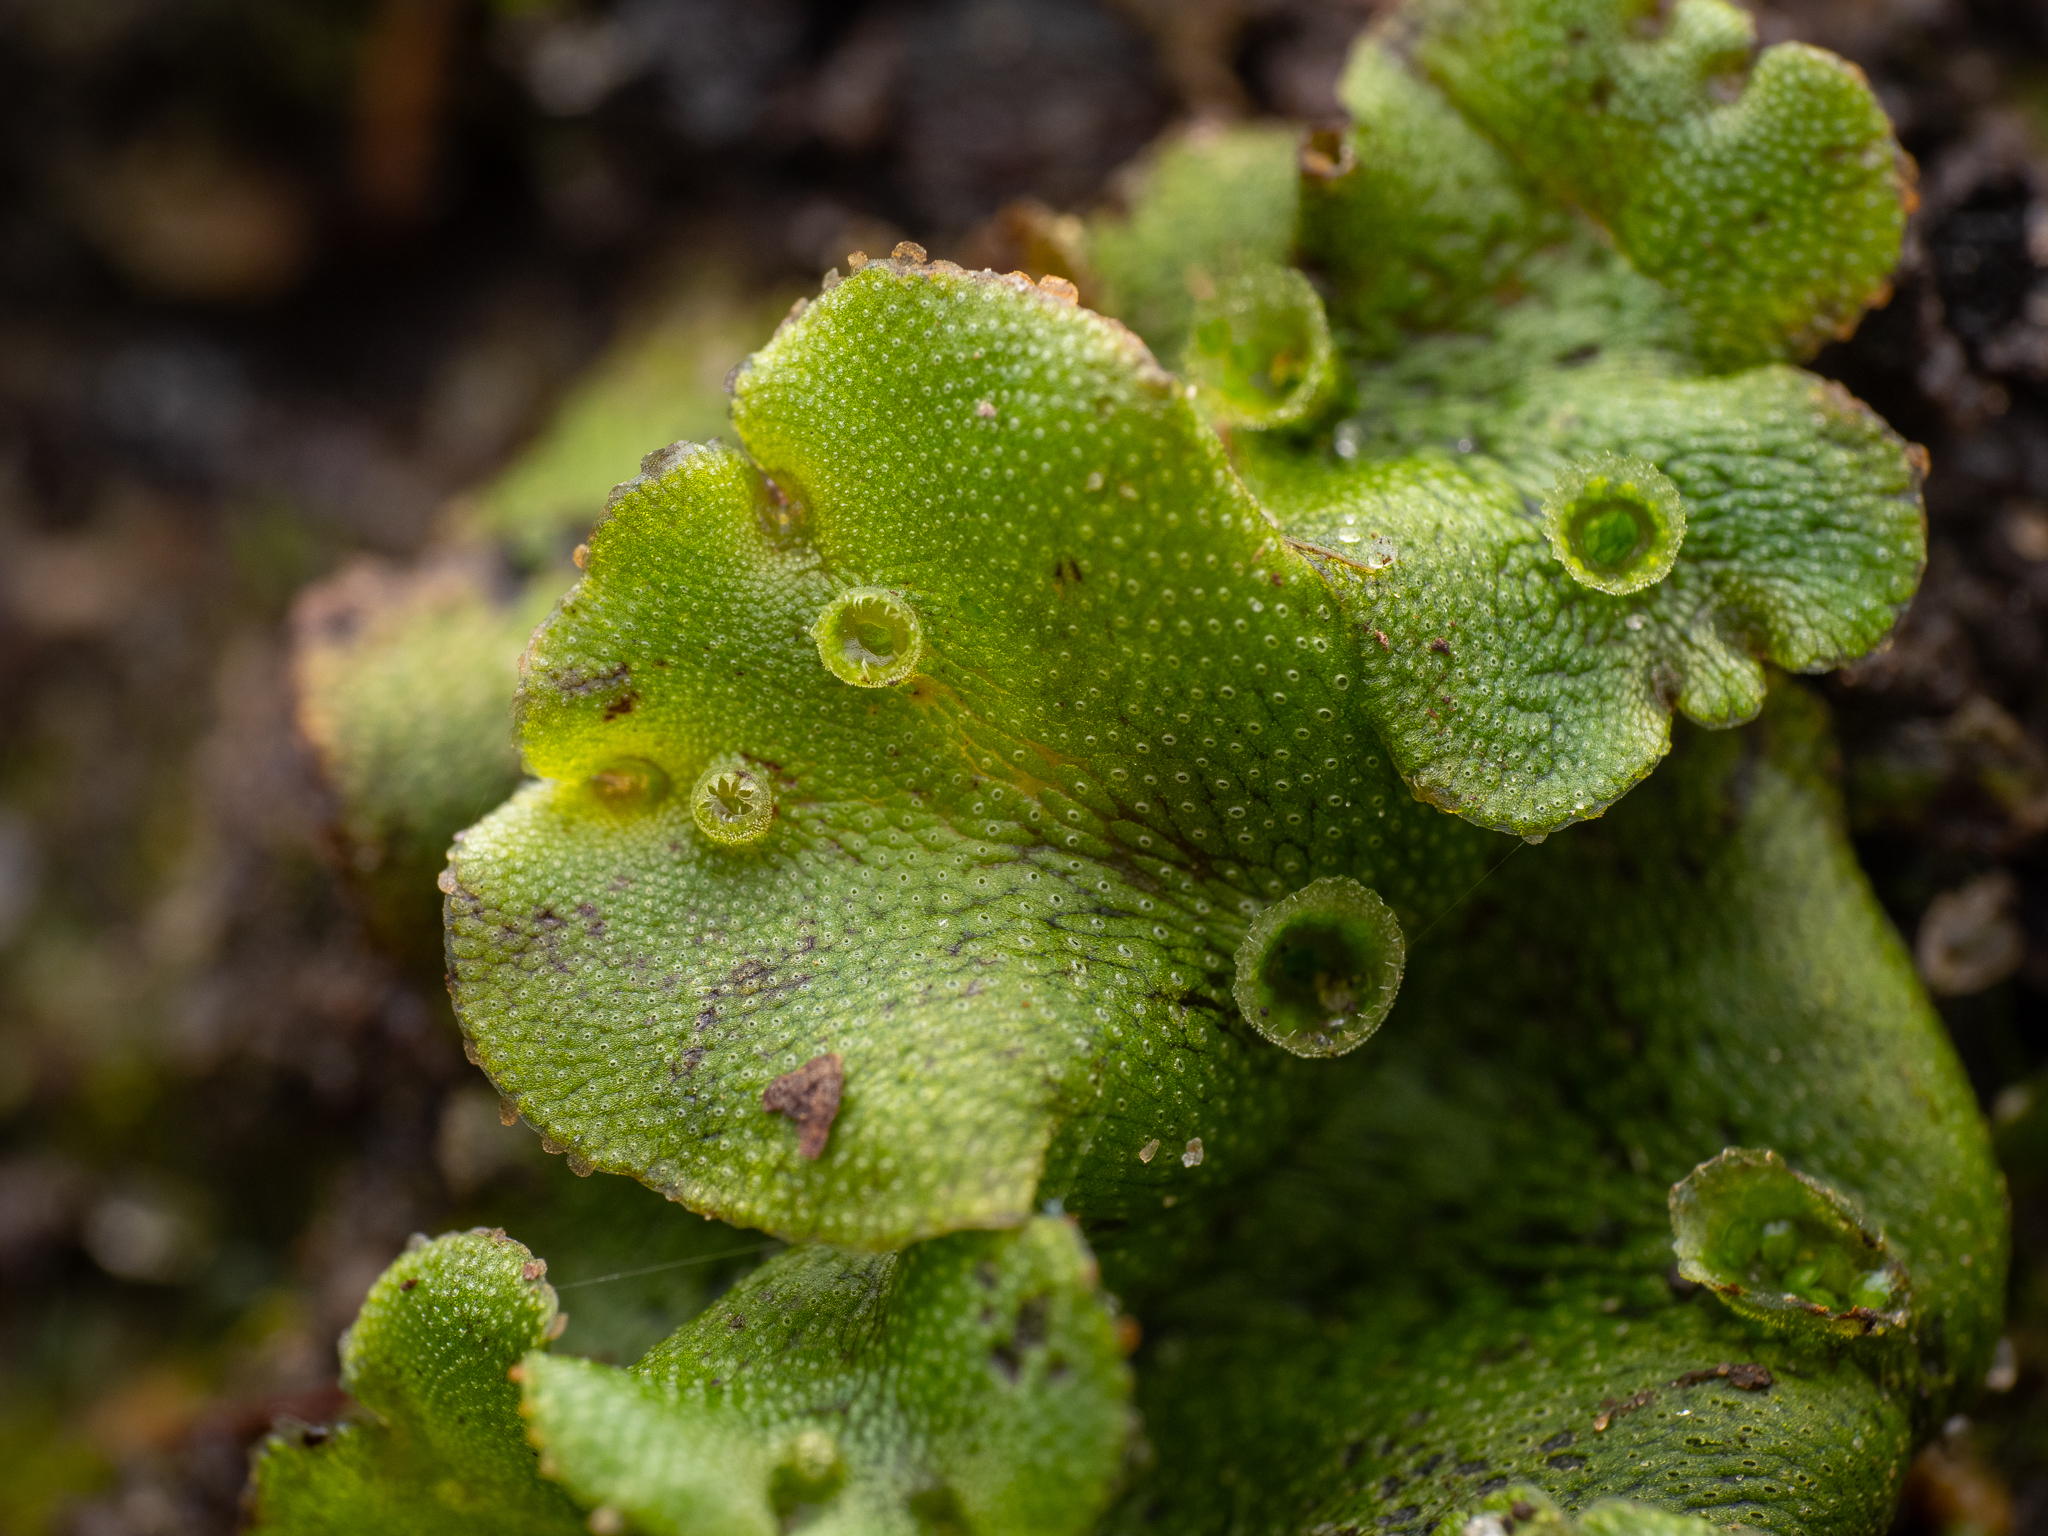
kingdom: Plantae
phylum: Marchantiophyta
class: Marchantiopsida
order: Marchantiales
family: Marchantiaceae
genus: Marchantia
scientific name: Marchantia polymorpha
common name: Common liverwort
